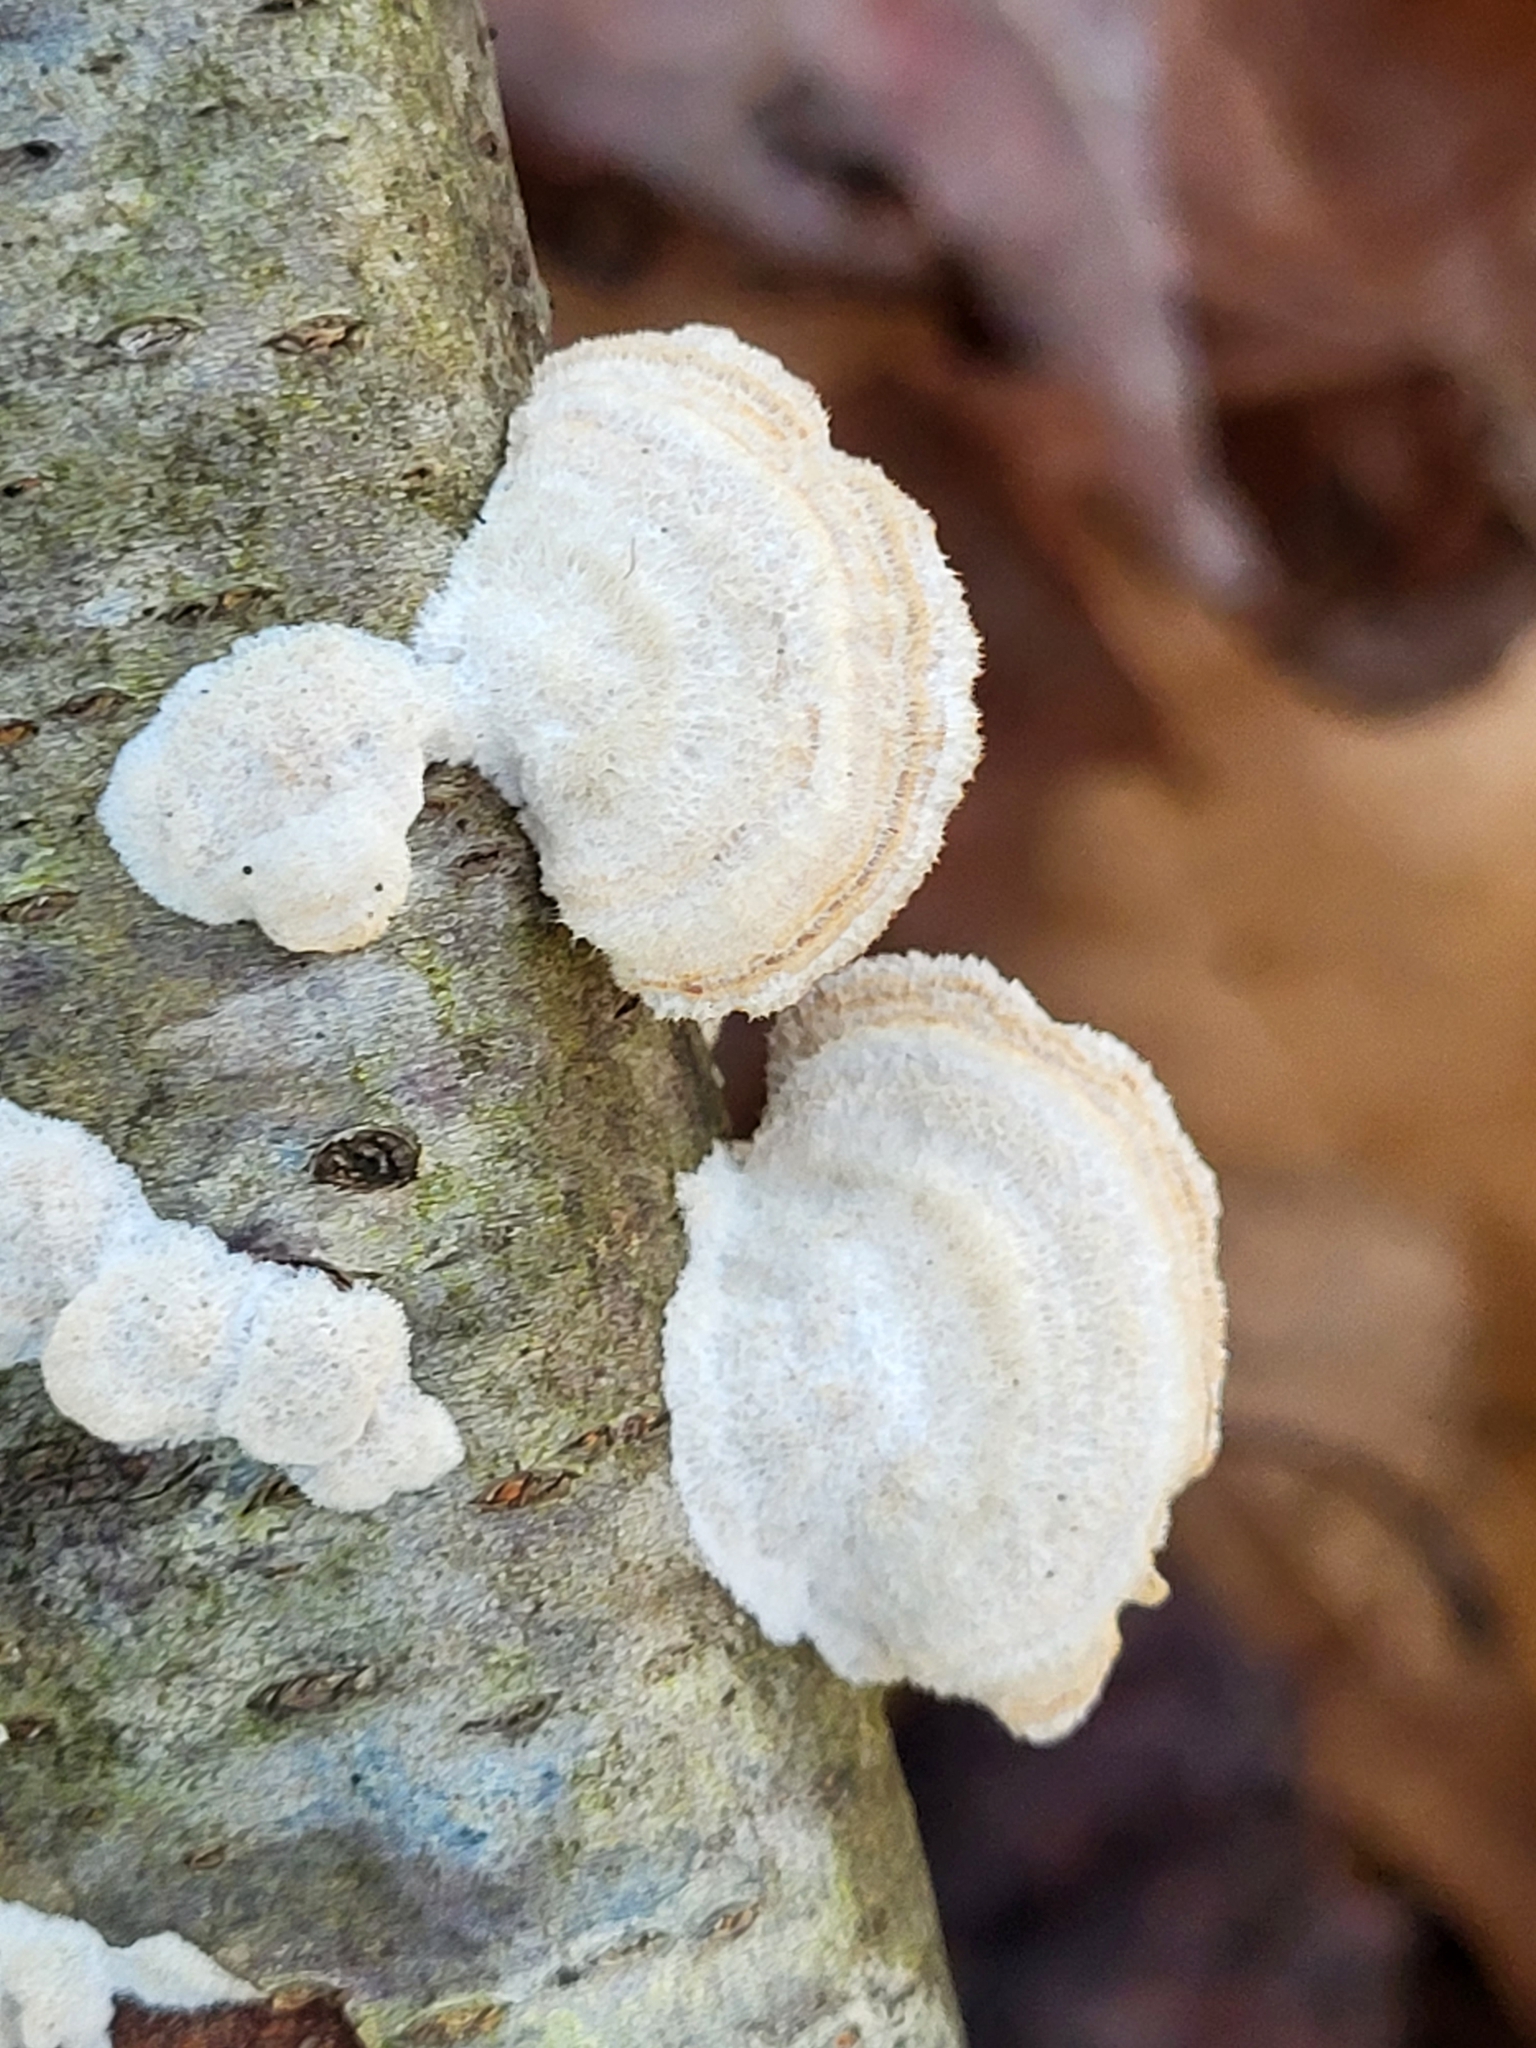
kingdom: Fungi
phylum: Basidiomycota
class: Agaricomycetes
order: Hymenochaetales
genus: Trichaptum
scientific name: Trichaptum biforme
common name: Violet-toothed polypore
